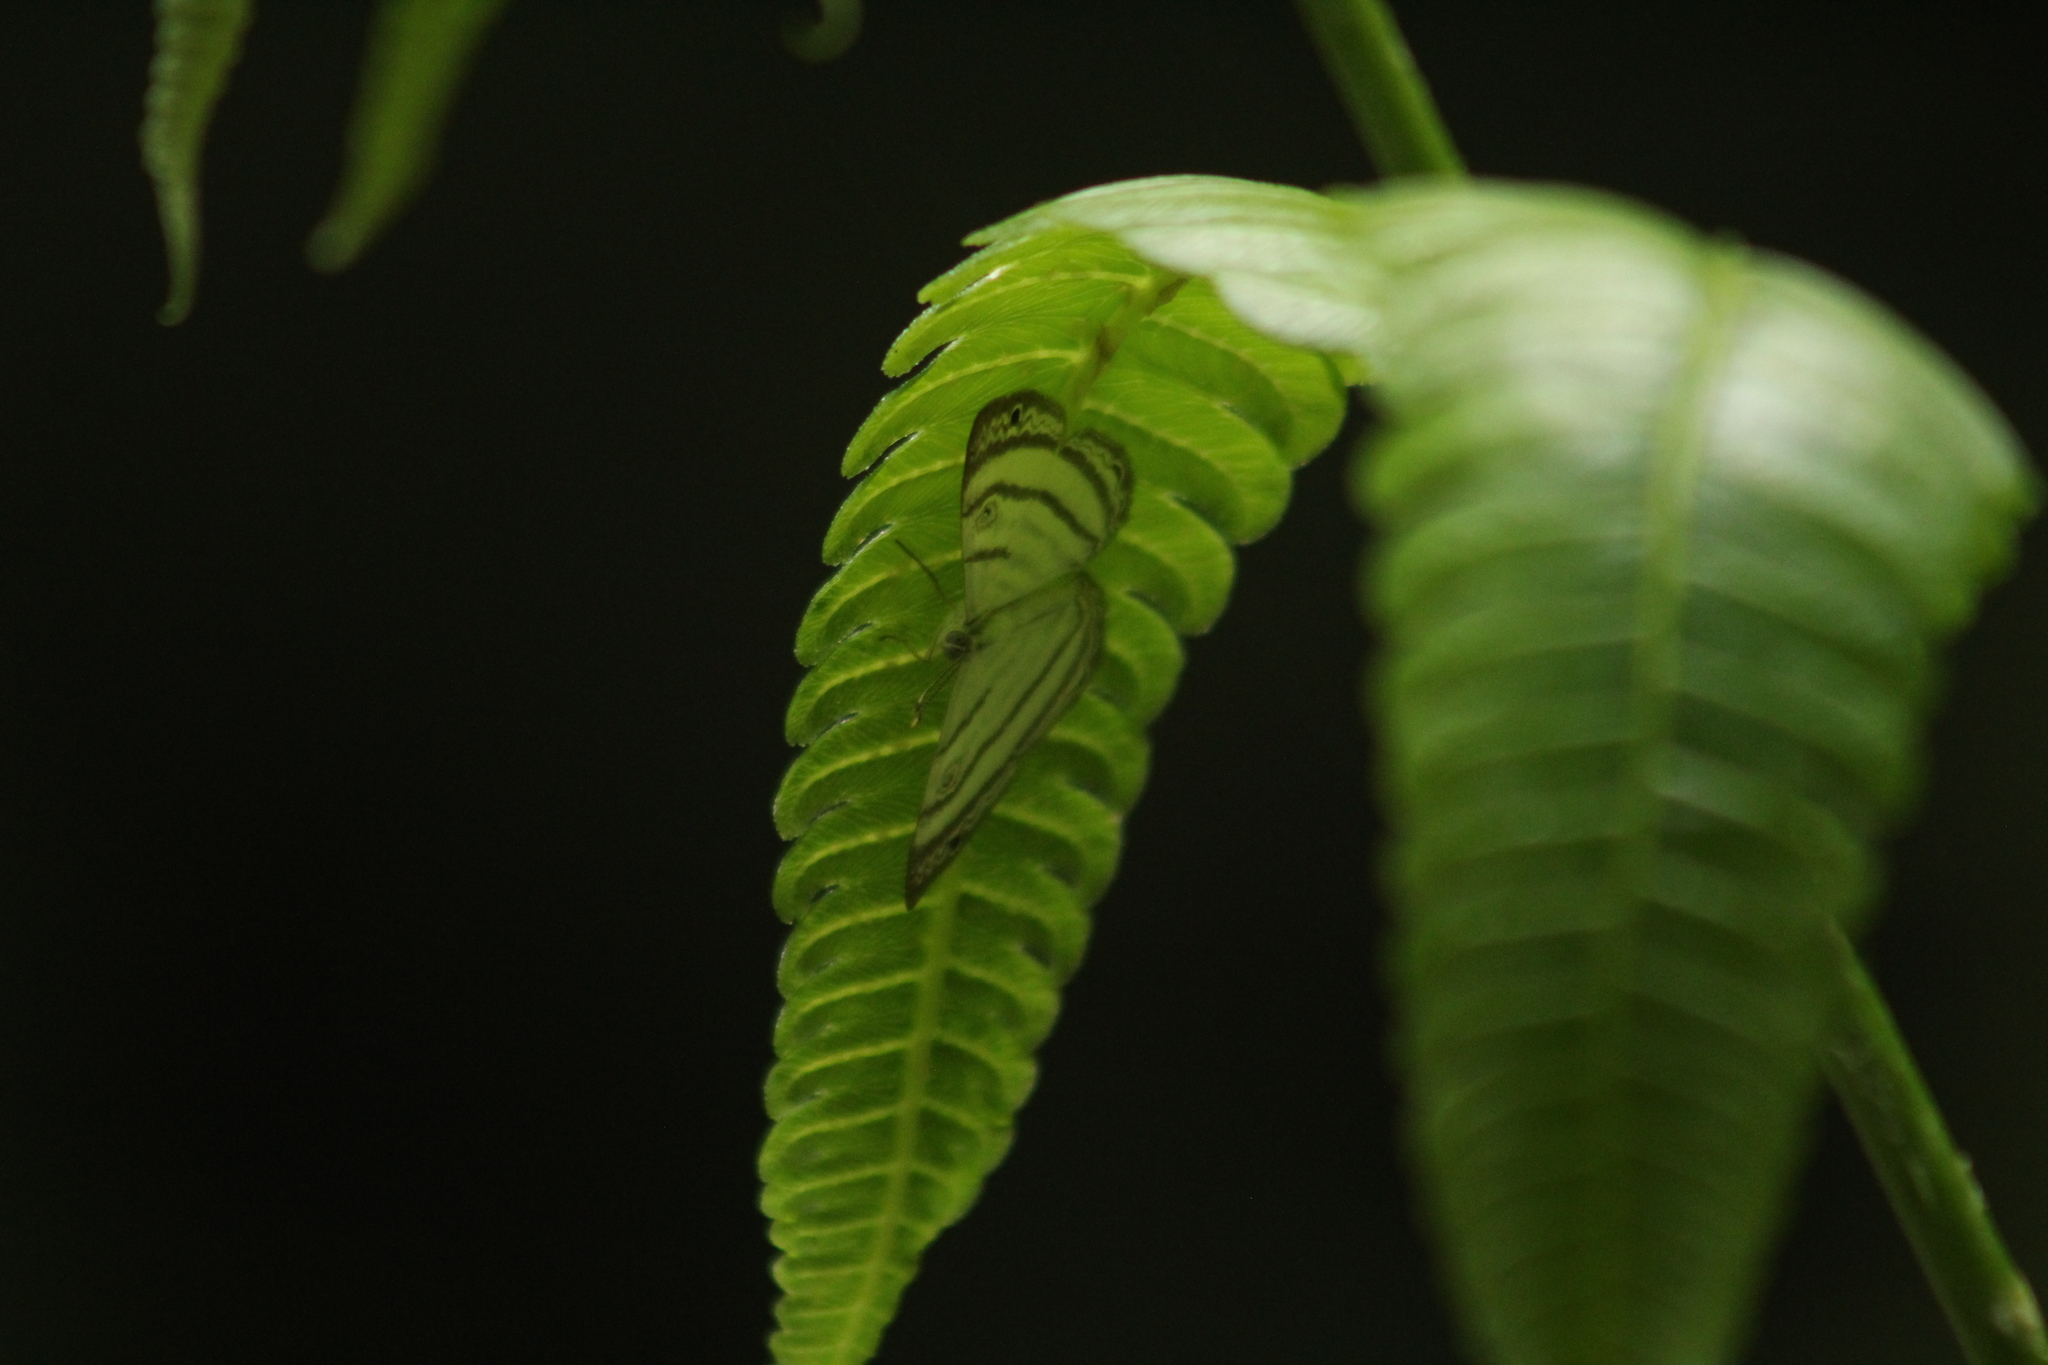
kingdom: Animalia
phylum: Arthropoda
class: Insecta
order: Lepidoptera
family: Riodinidae
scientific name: Riodinidae
